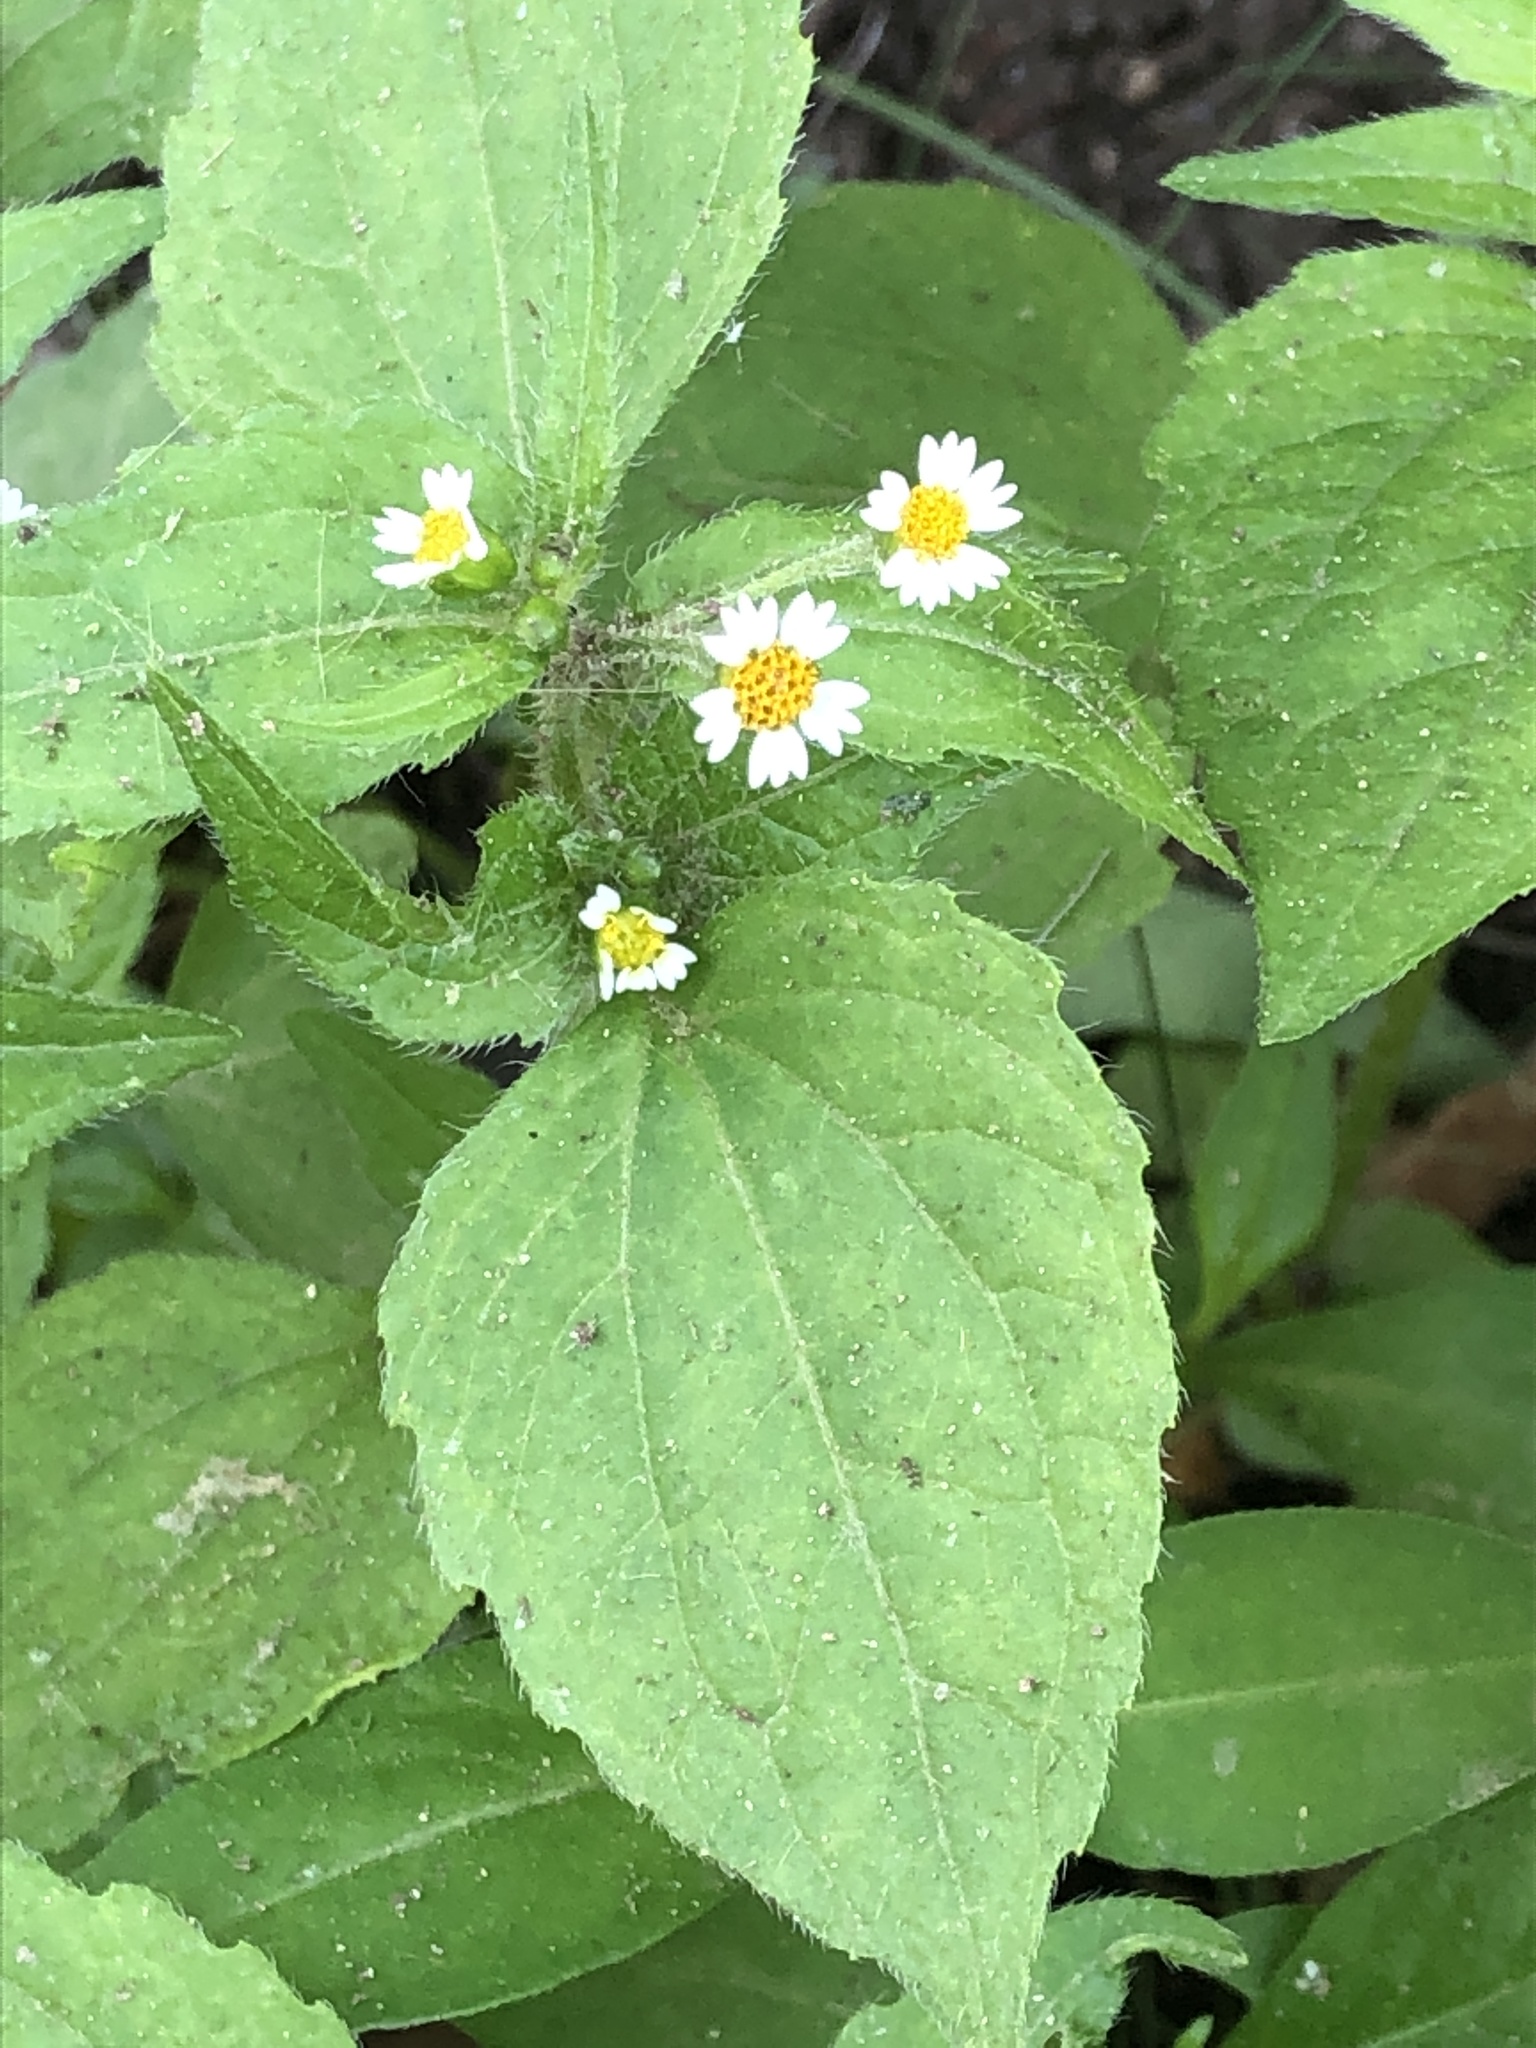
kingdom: Plantae
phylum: Tracheophyta
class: Magnoliopsida
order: Asterales
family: Asteraceae
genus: Galinsoga
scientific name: Galinsoga quadriradiata
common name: Shaggy soldier
